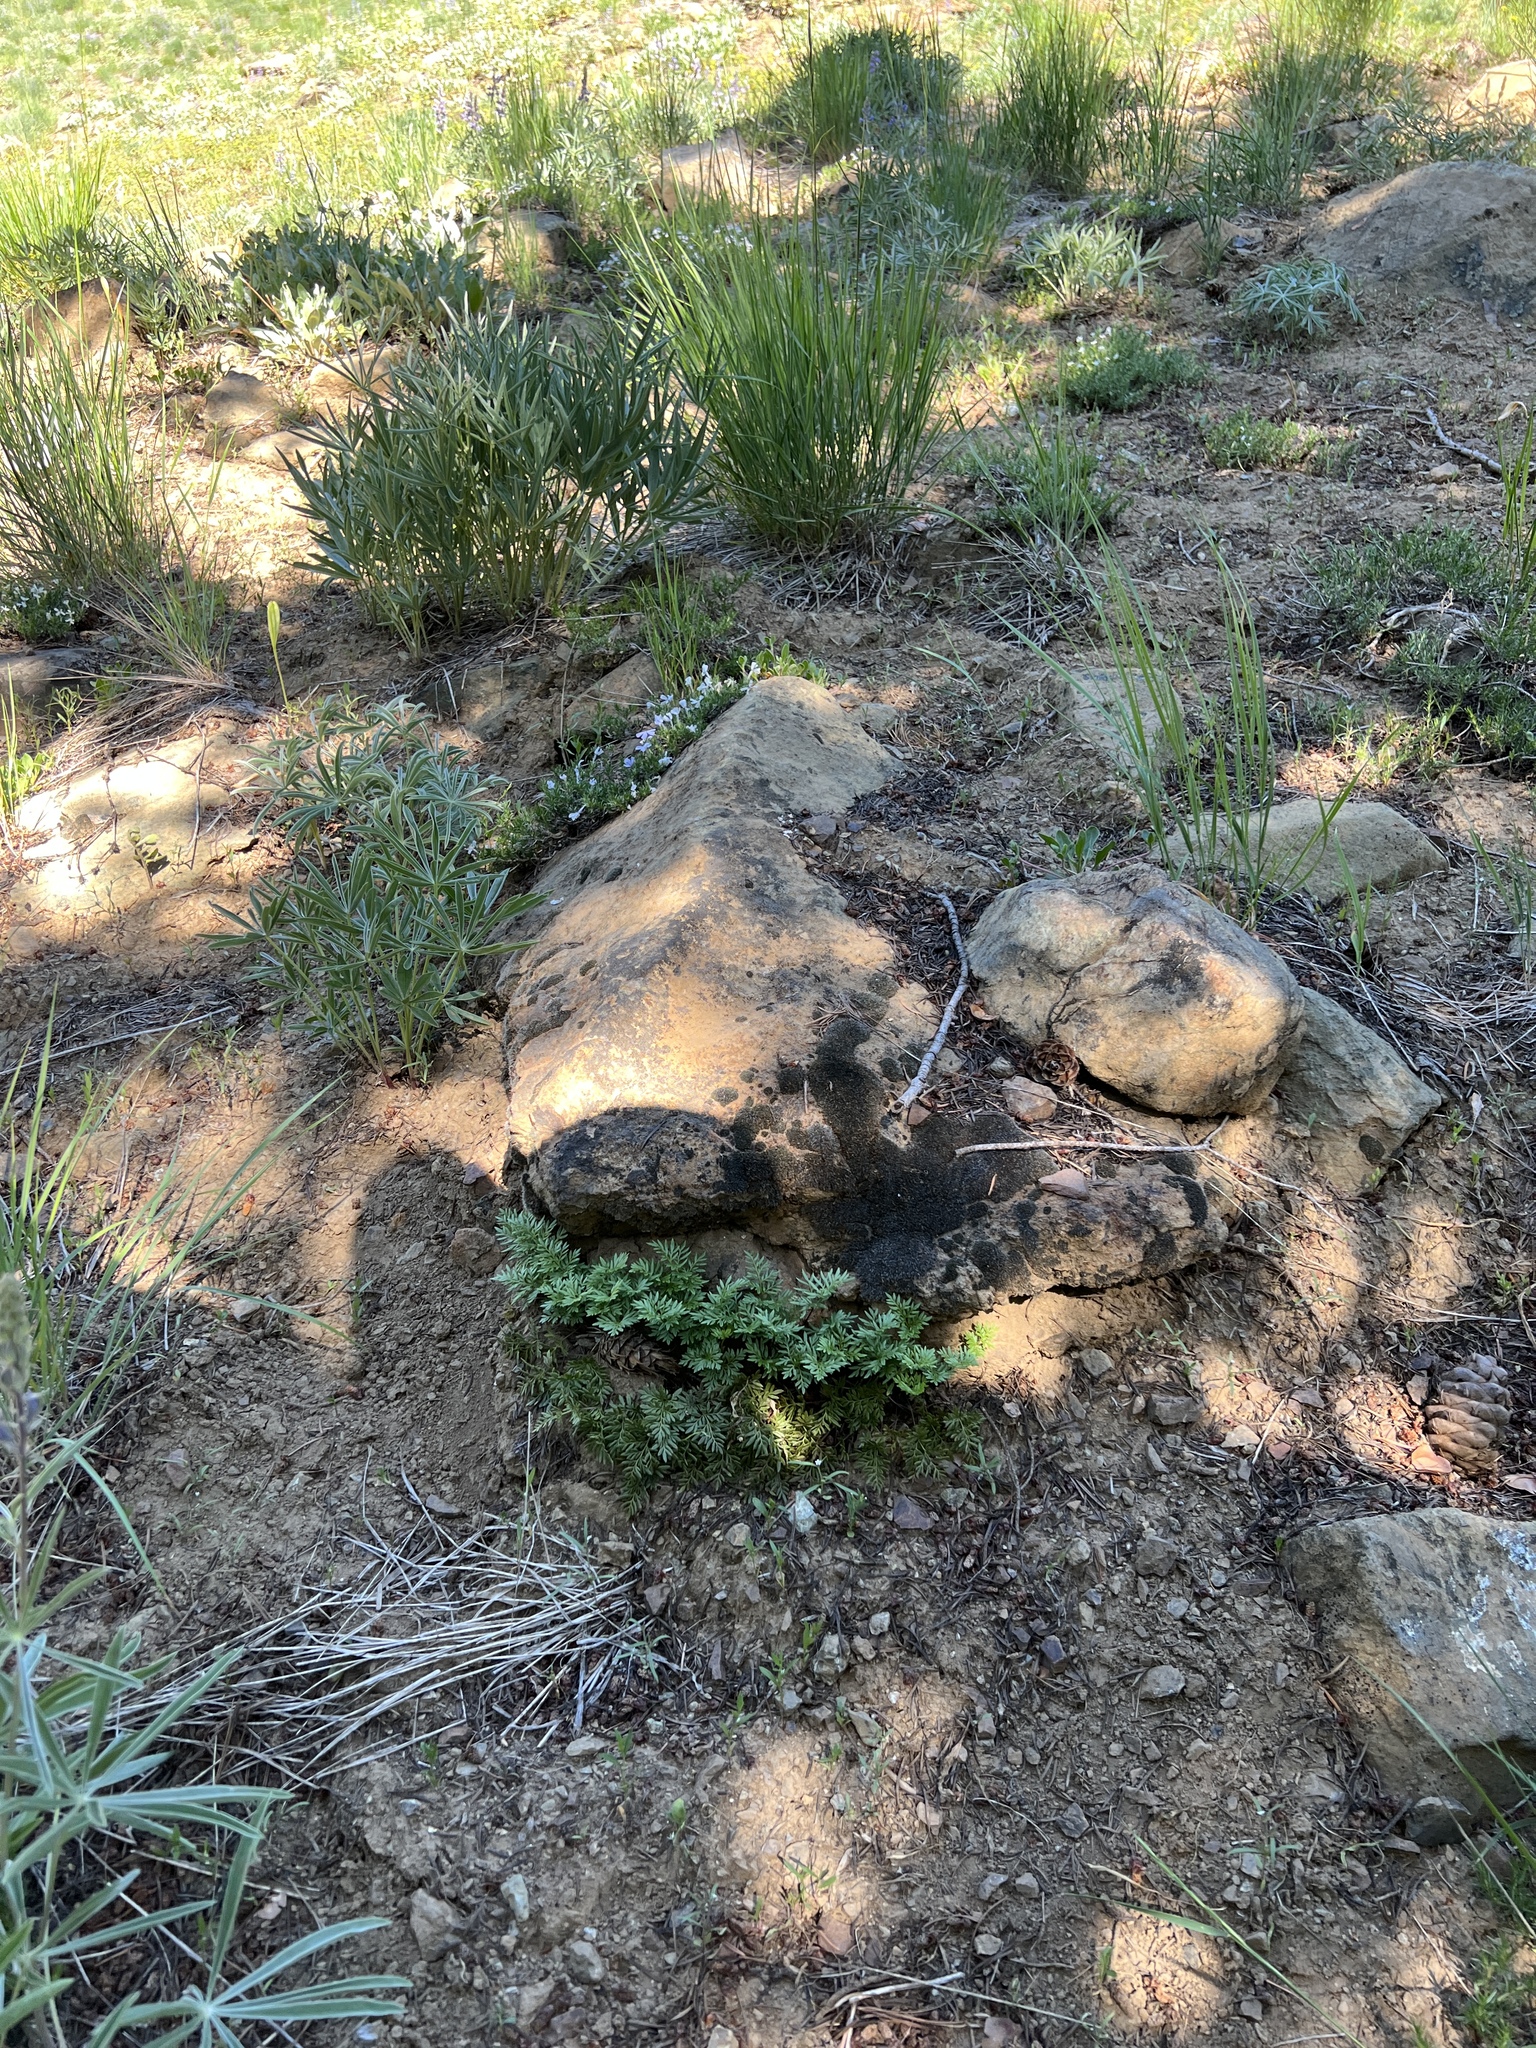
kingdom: Plantae
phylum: Tracheophyta
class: Polypodiopsida
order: Polypodiales
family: Pteridaceae
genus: Aspidotis
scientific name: Aspidotis densa
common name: Indian's dream
